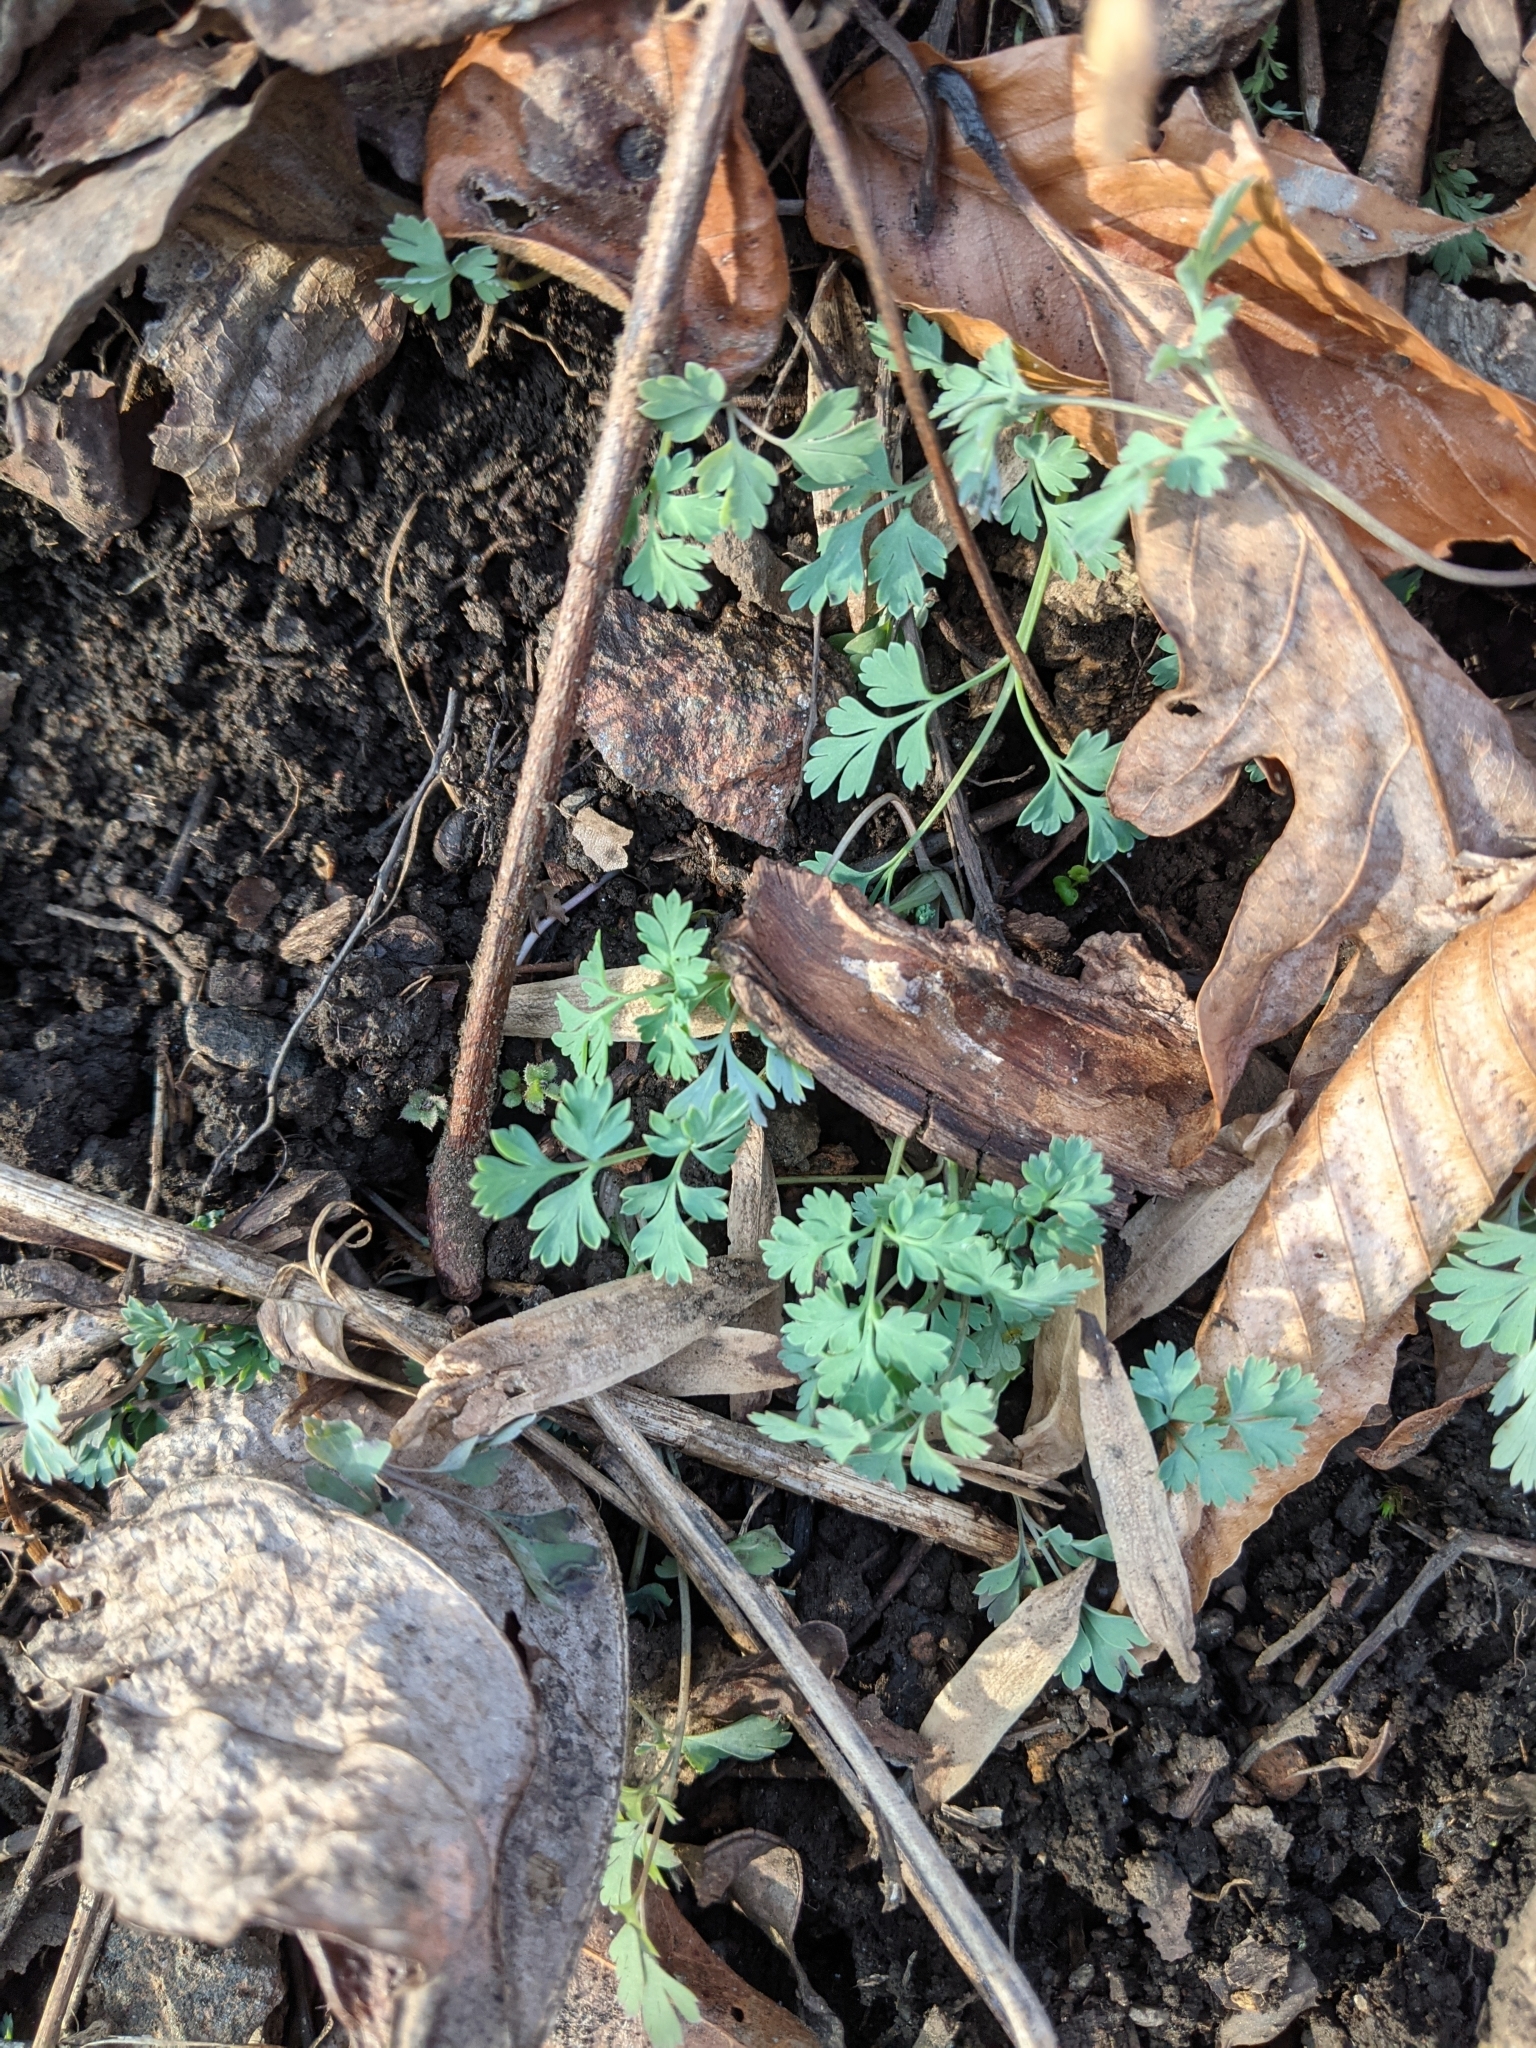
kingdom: Plantae
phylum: Tracheophyta
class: Magnoliopsida
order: Ranunculales
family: Papaveraceae
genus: Corydalis
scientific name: Corydalis flavula
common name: Yellow corydalis
